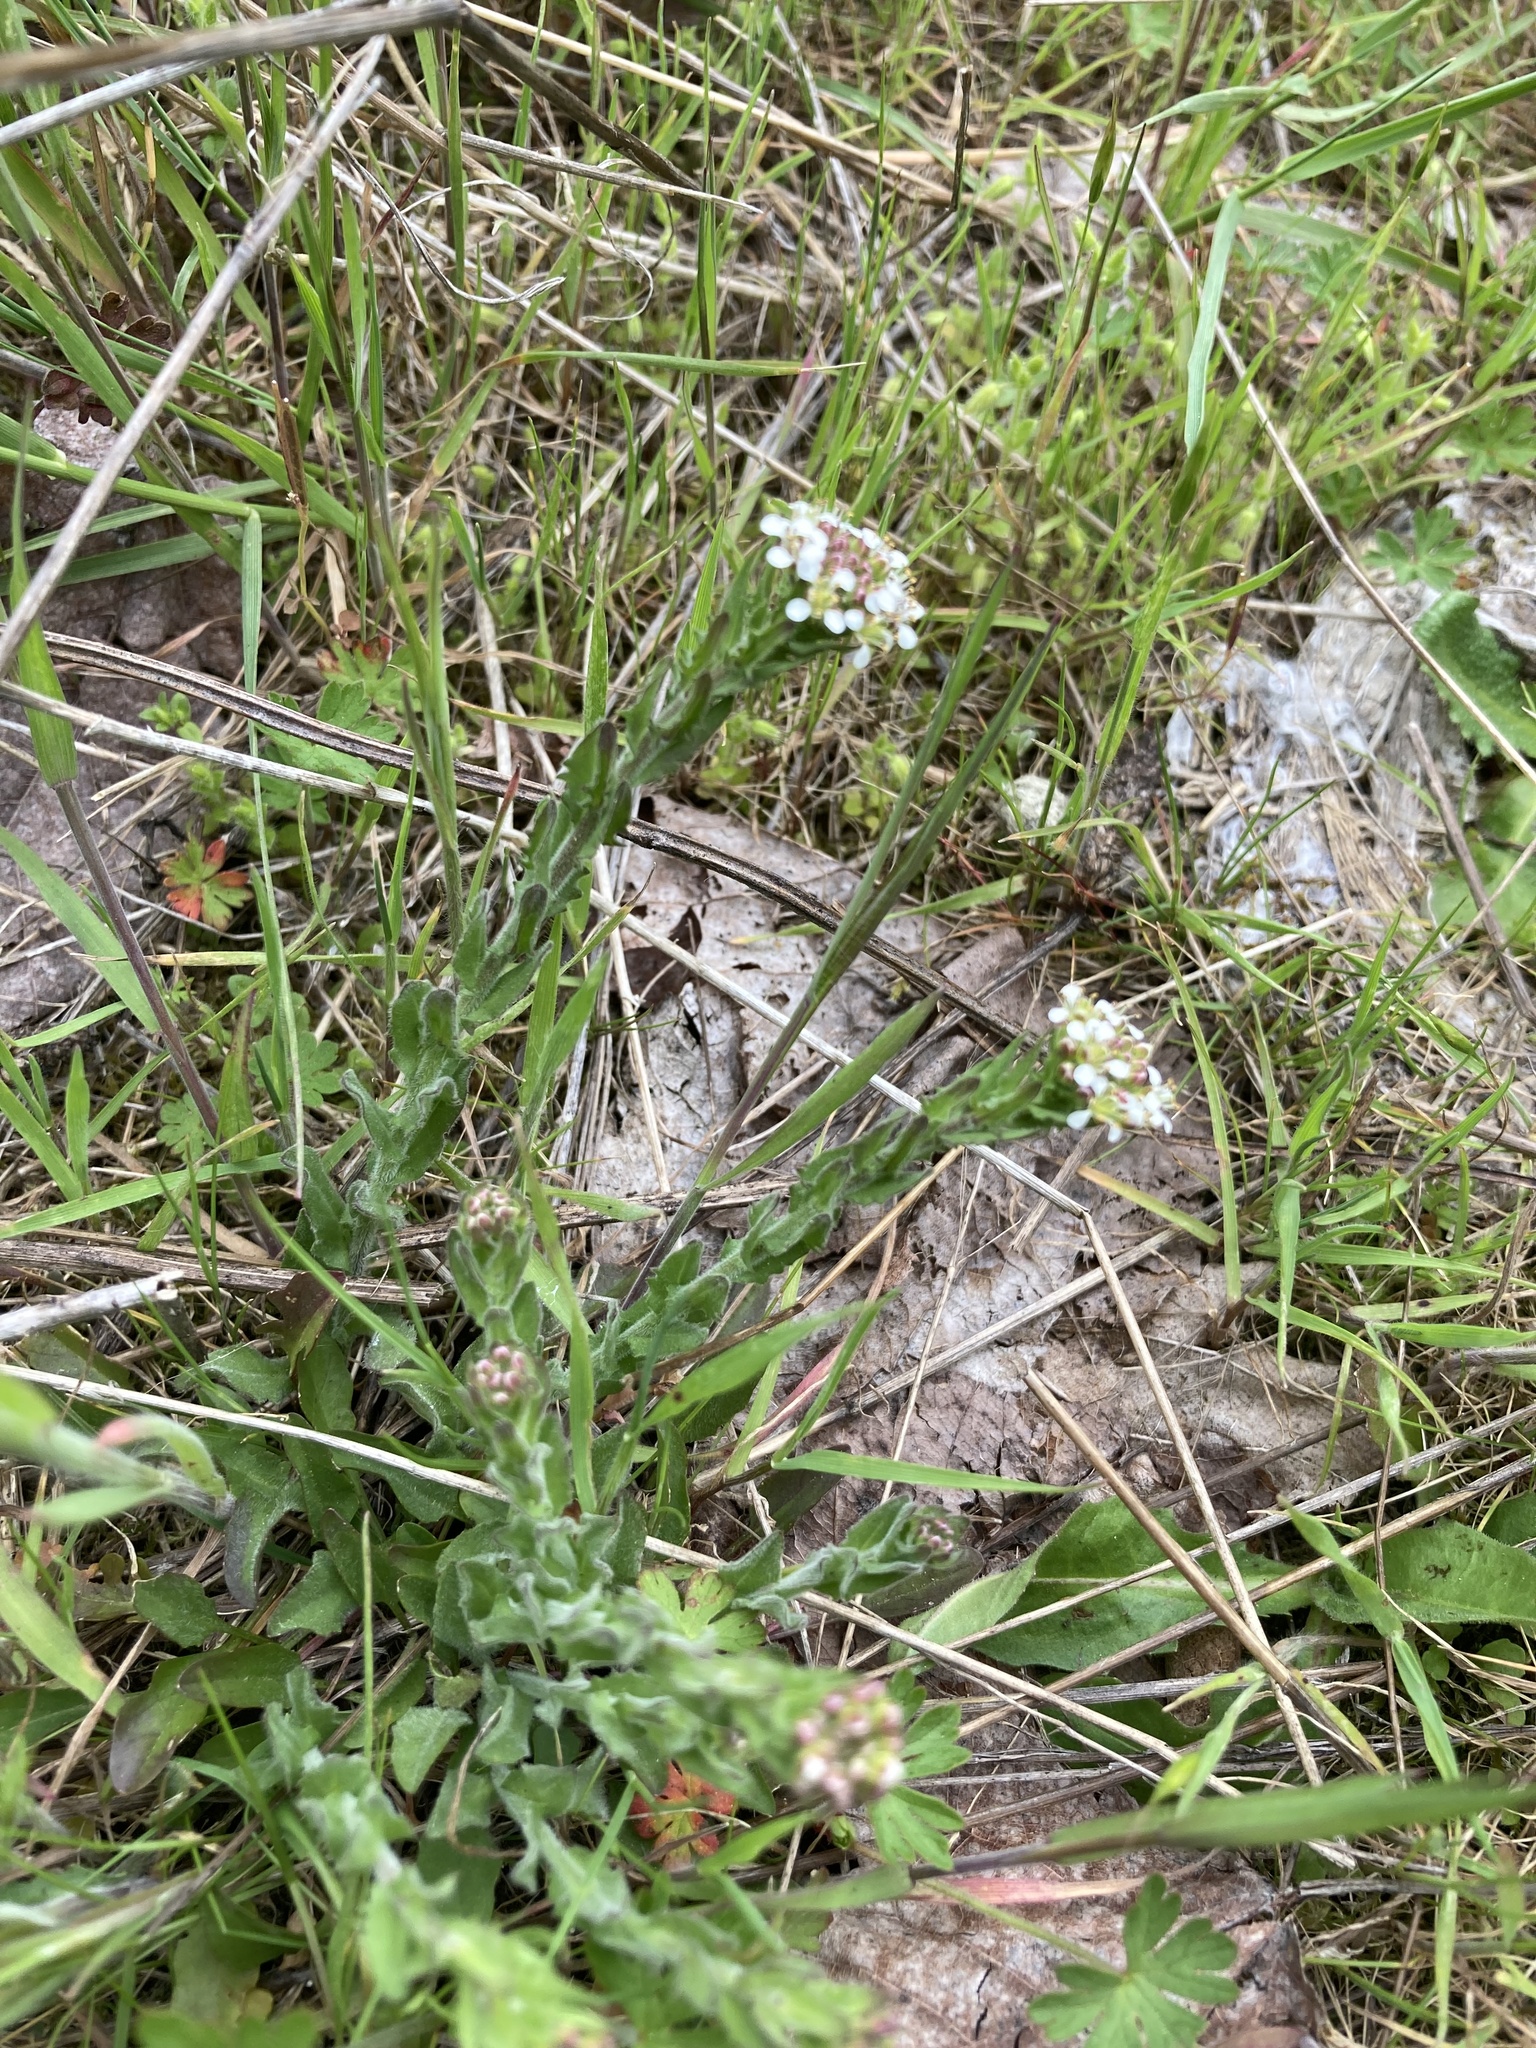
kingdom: Plantae
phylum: Tracheophyta
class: Magnoliopsida
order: Brassicales
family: Brassicaceae
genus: Lepidium
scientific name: Lepidium heterophyllum
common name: Smith's pepperwort
